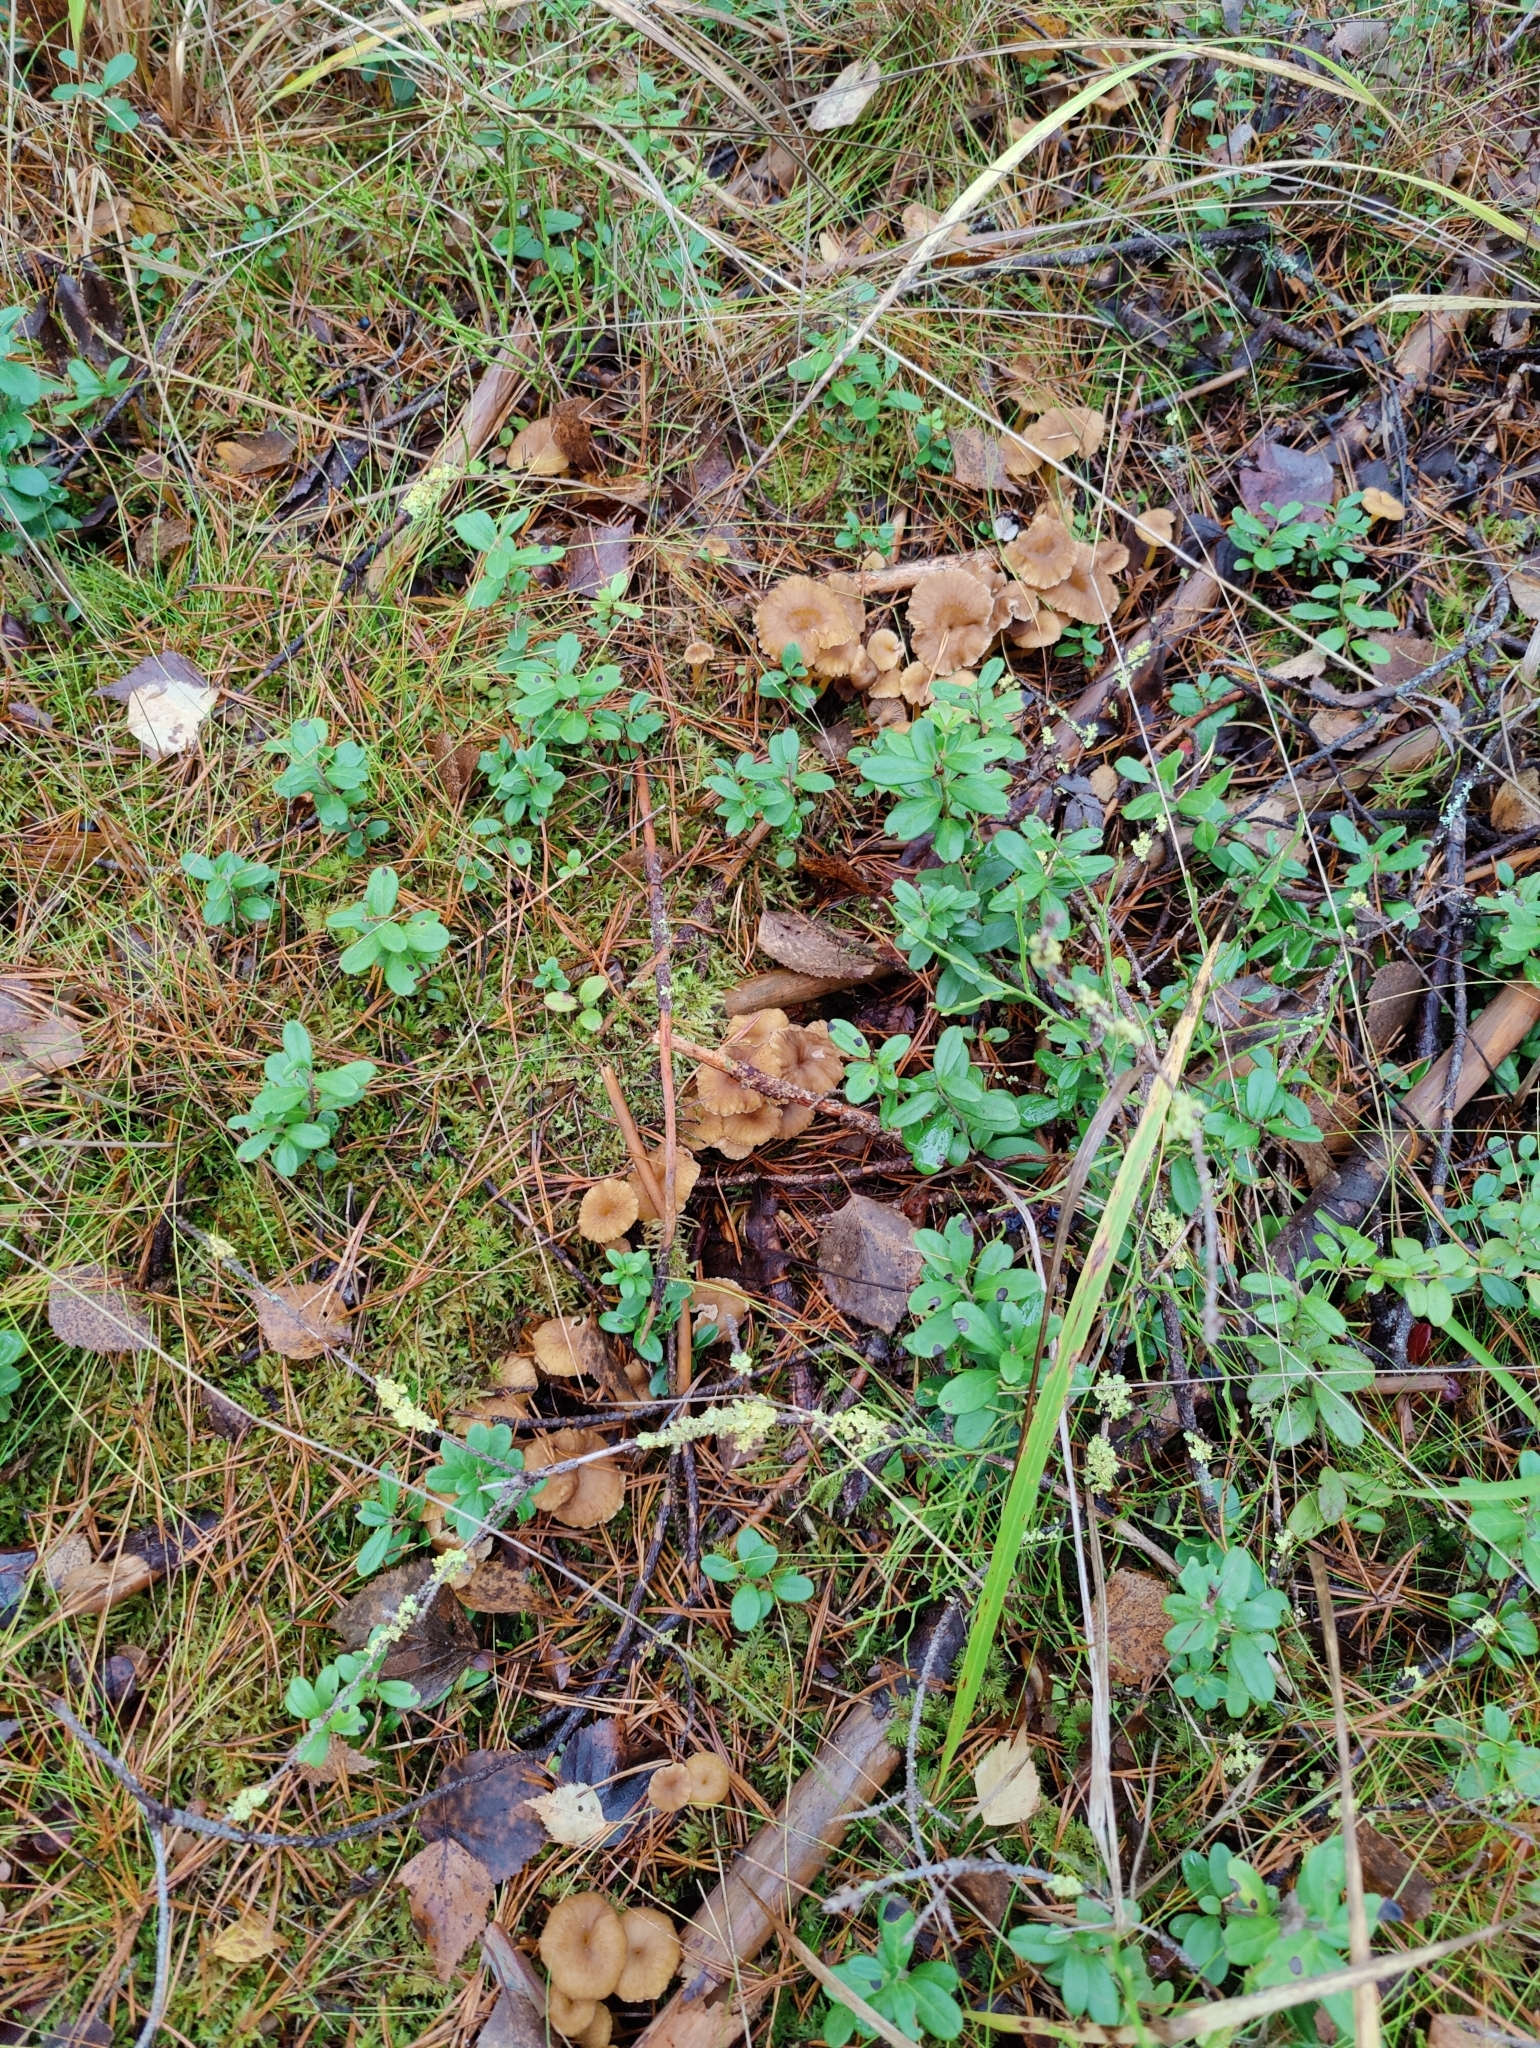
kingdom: Fungi
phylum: Basidiomycota
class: Agaricomycetes
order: Cantharellales
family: Hydnaceae
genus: Craterellus
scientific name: Craterellus tubaeformis
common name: Yellowfoot
